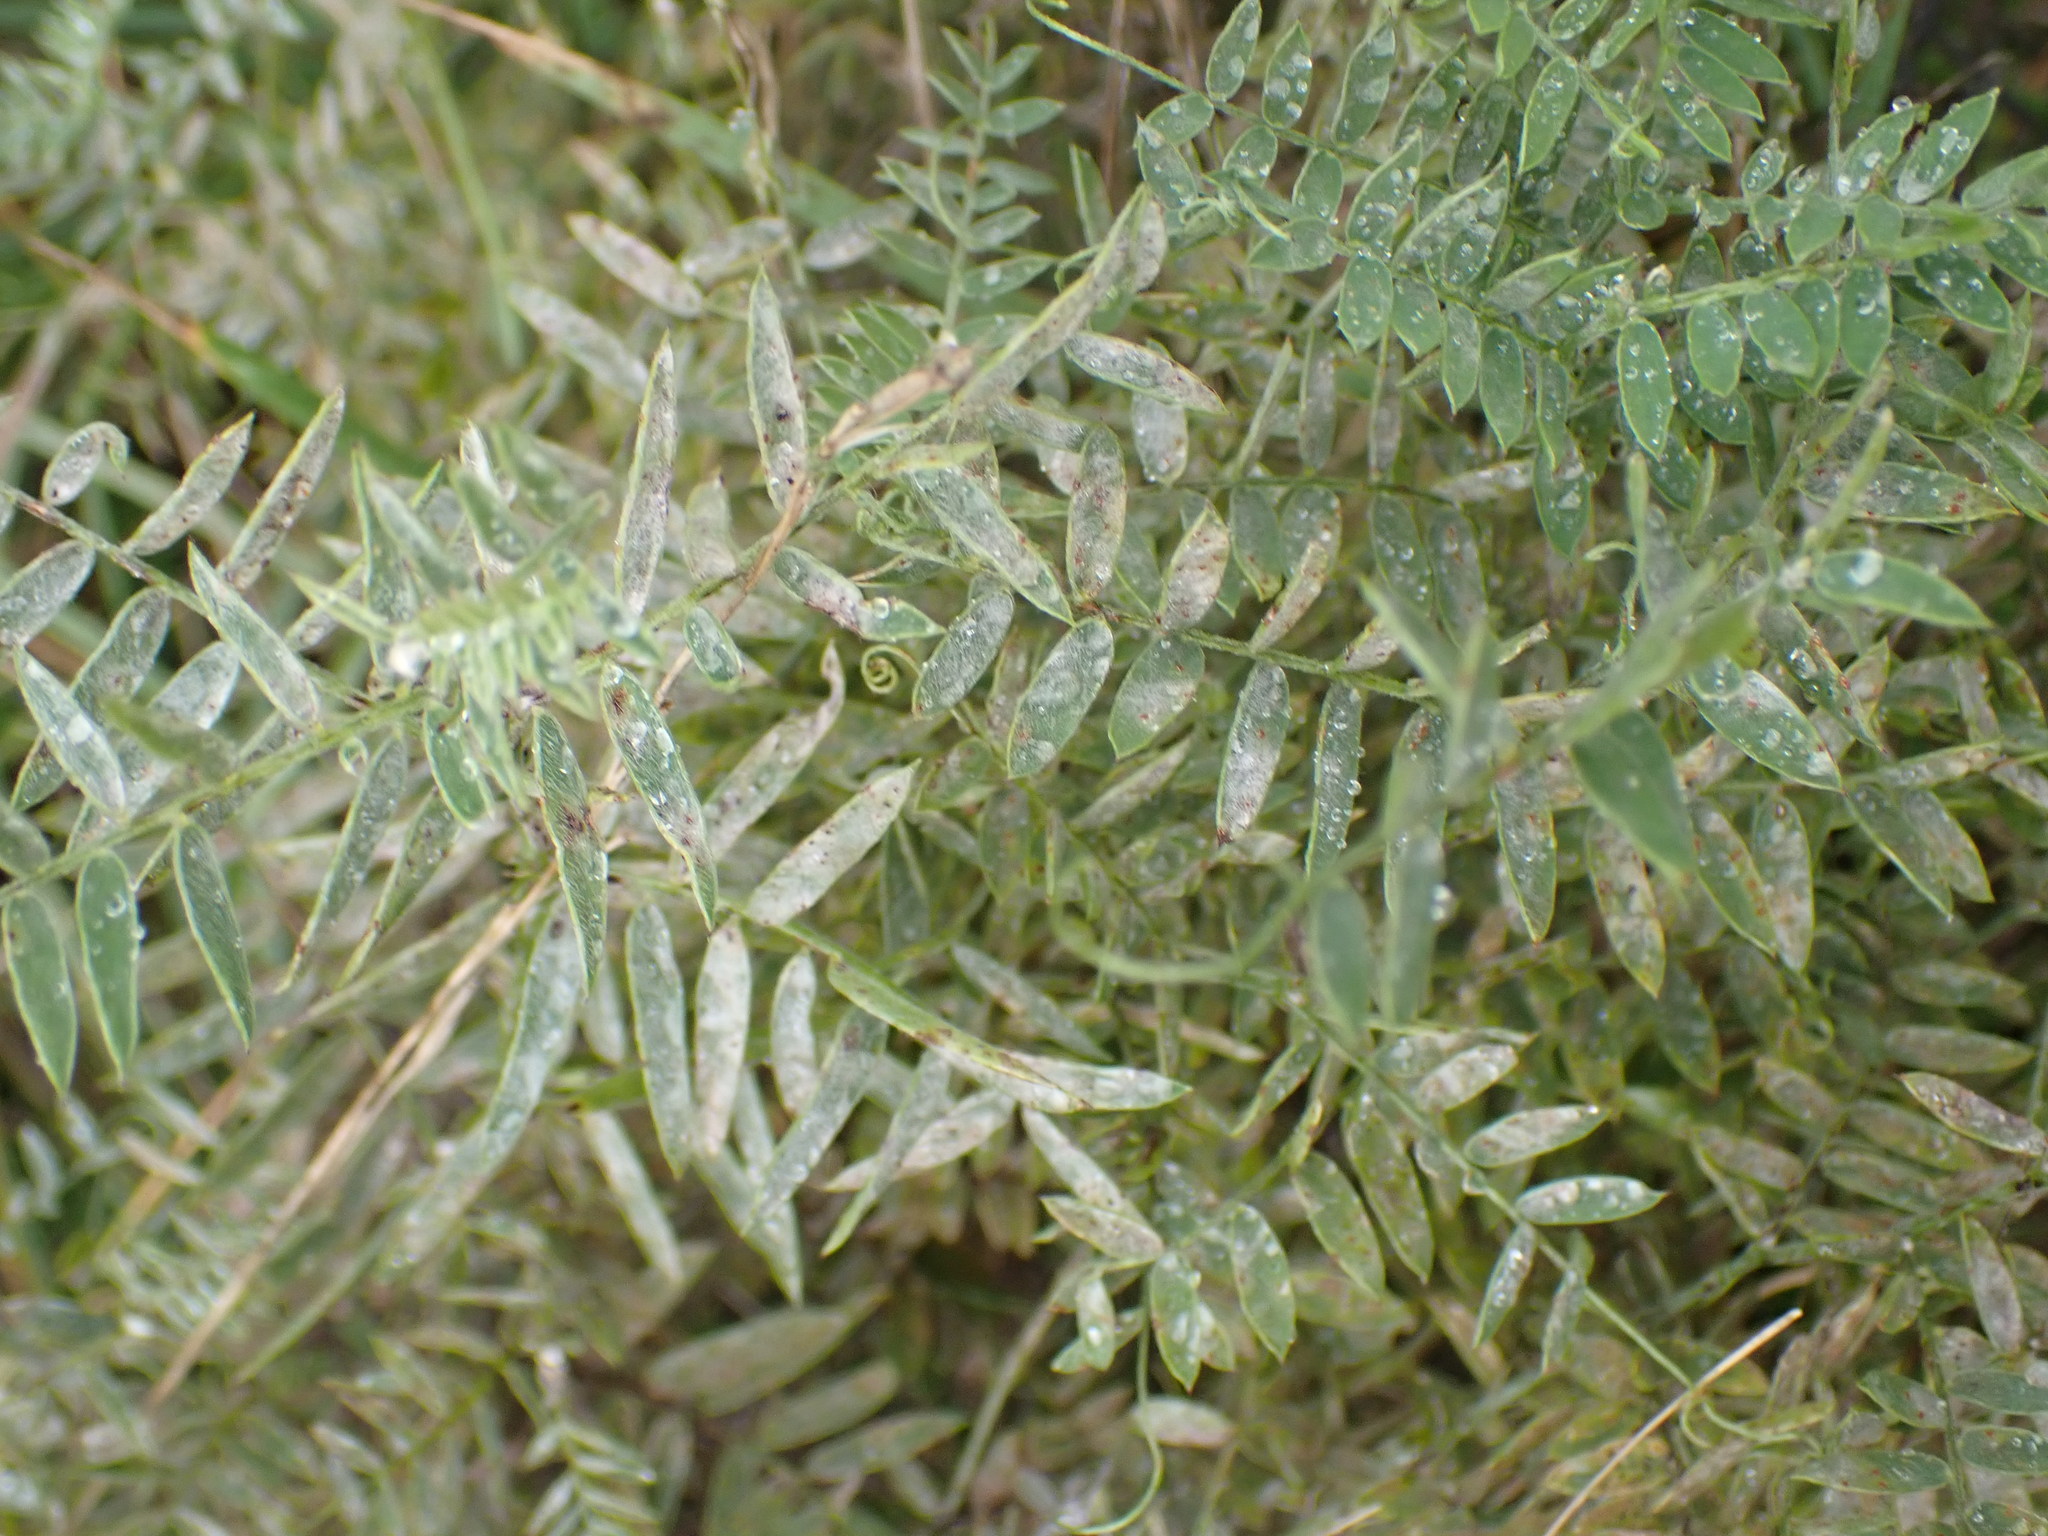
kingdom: Plantae
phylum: Tracheophyta
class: Magnoliopsida
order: Fabales
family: Fabaceae
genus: Vicia
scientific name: Vicia cracca
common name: Bird vetch
